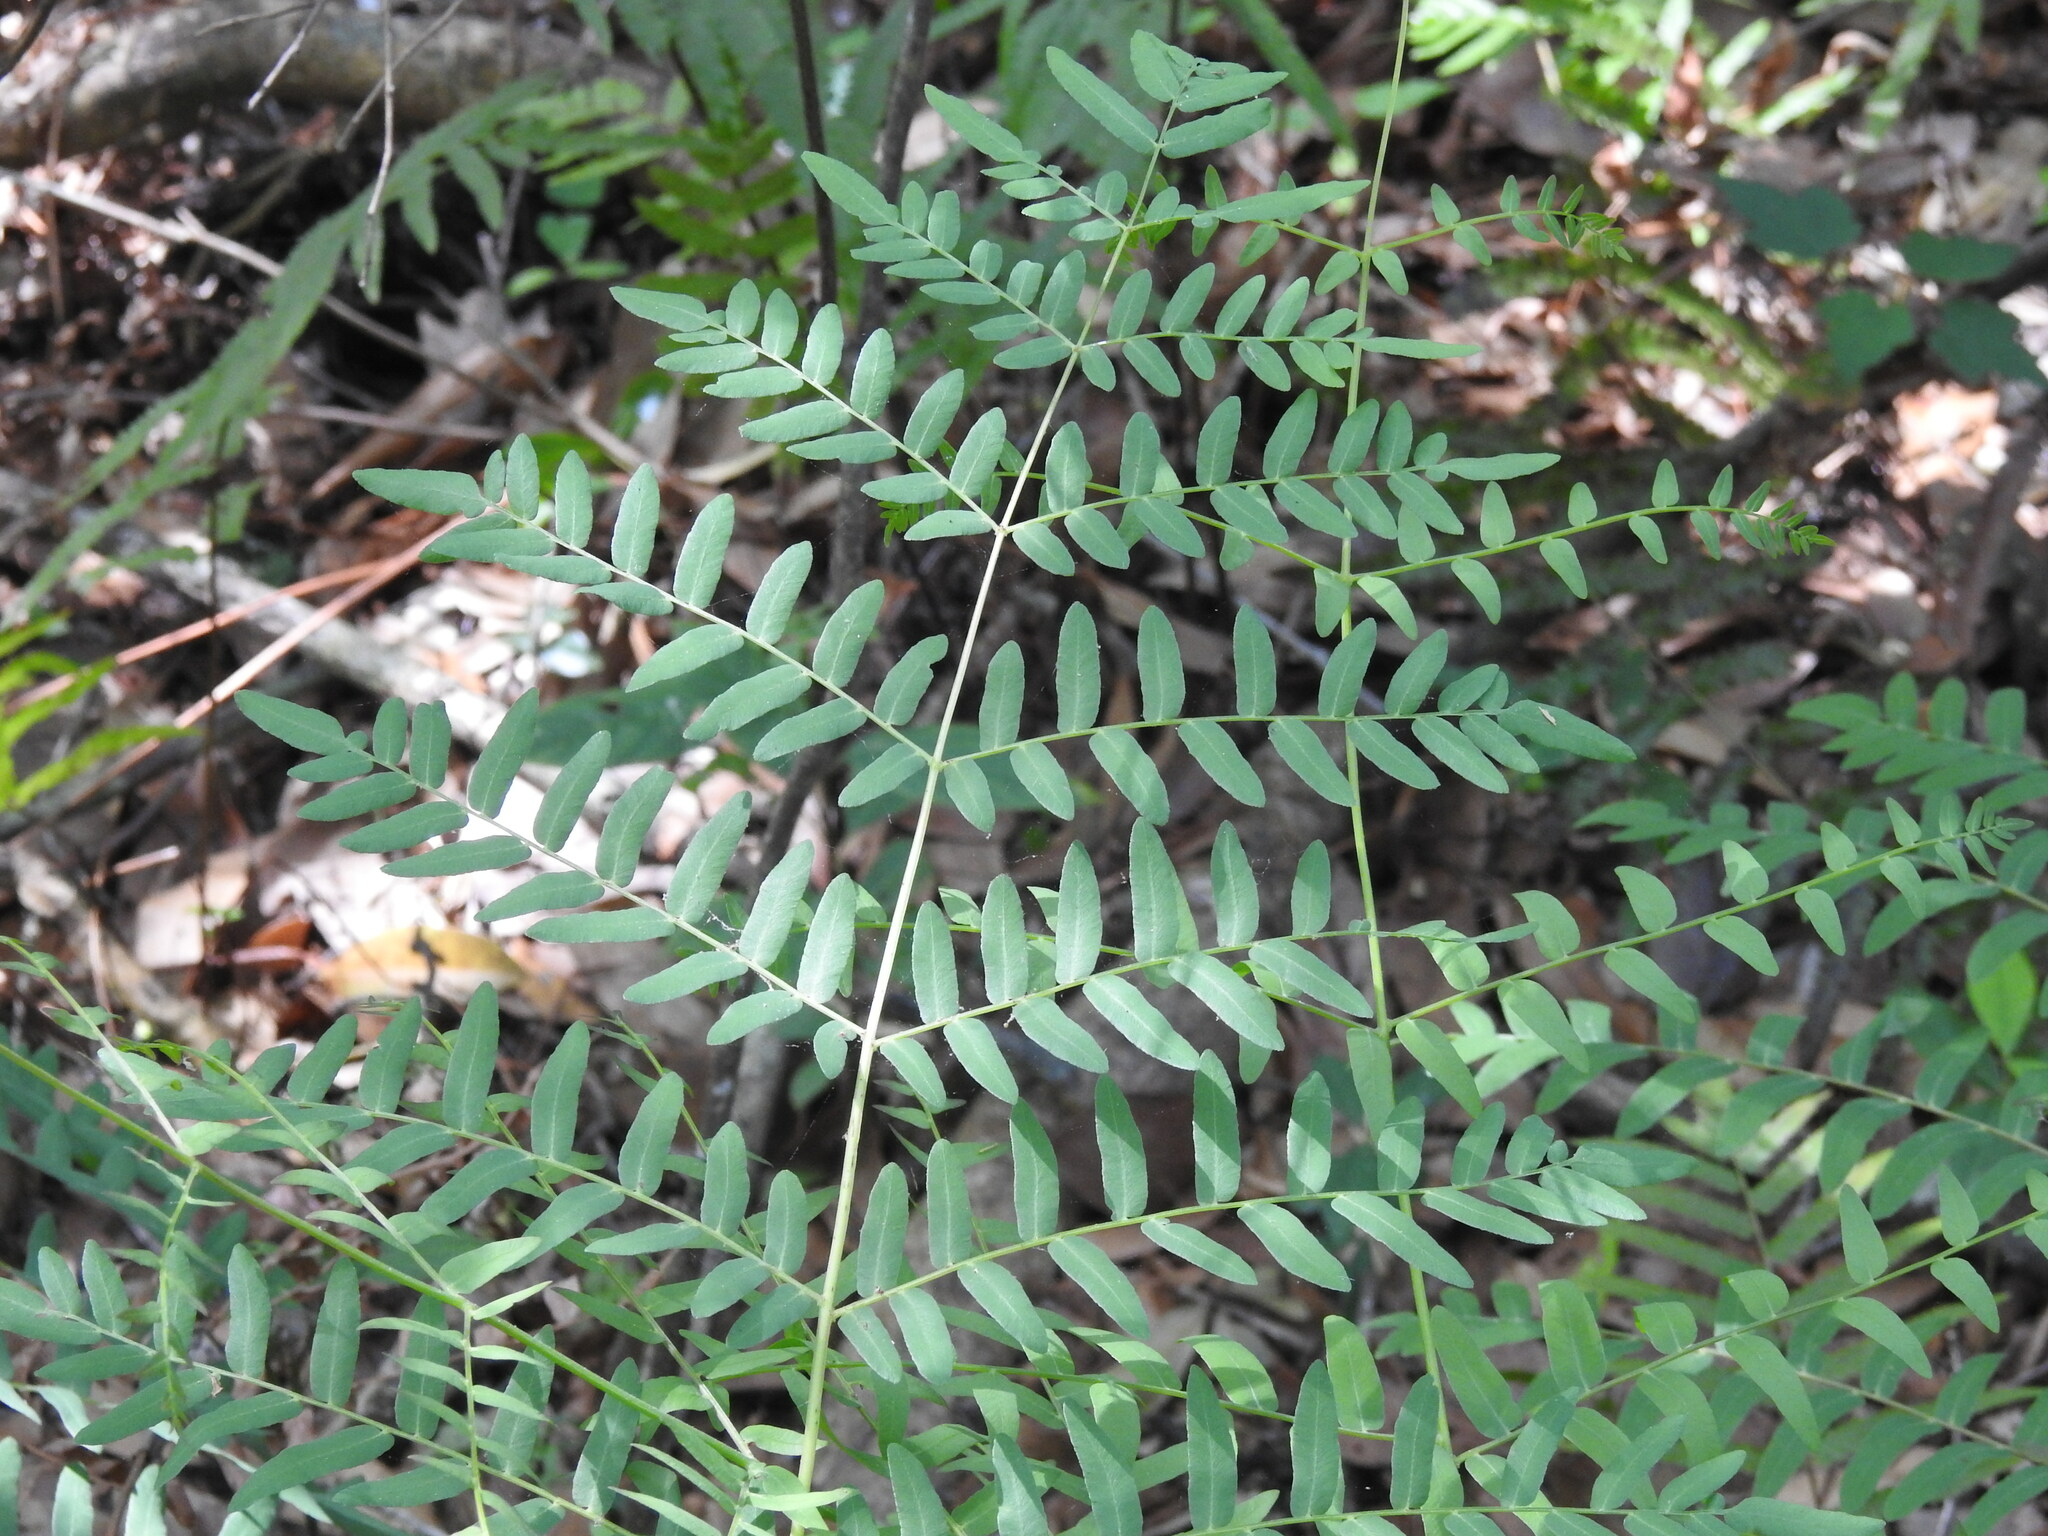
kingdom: Plantae
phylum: Tracheophyta
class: Polypodiopsida
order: Osmundales
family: Osmundaceae
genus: Osmunda
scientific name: Osmunda spectabilis
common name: American royal fern
